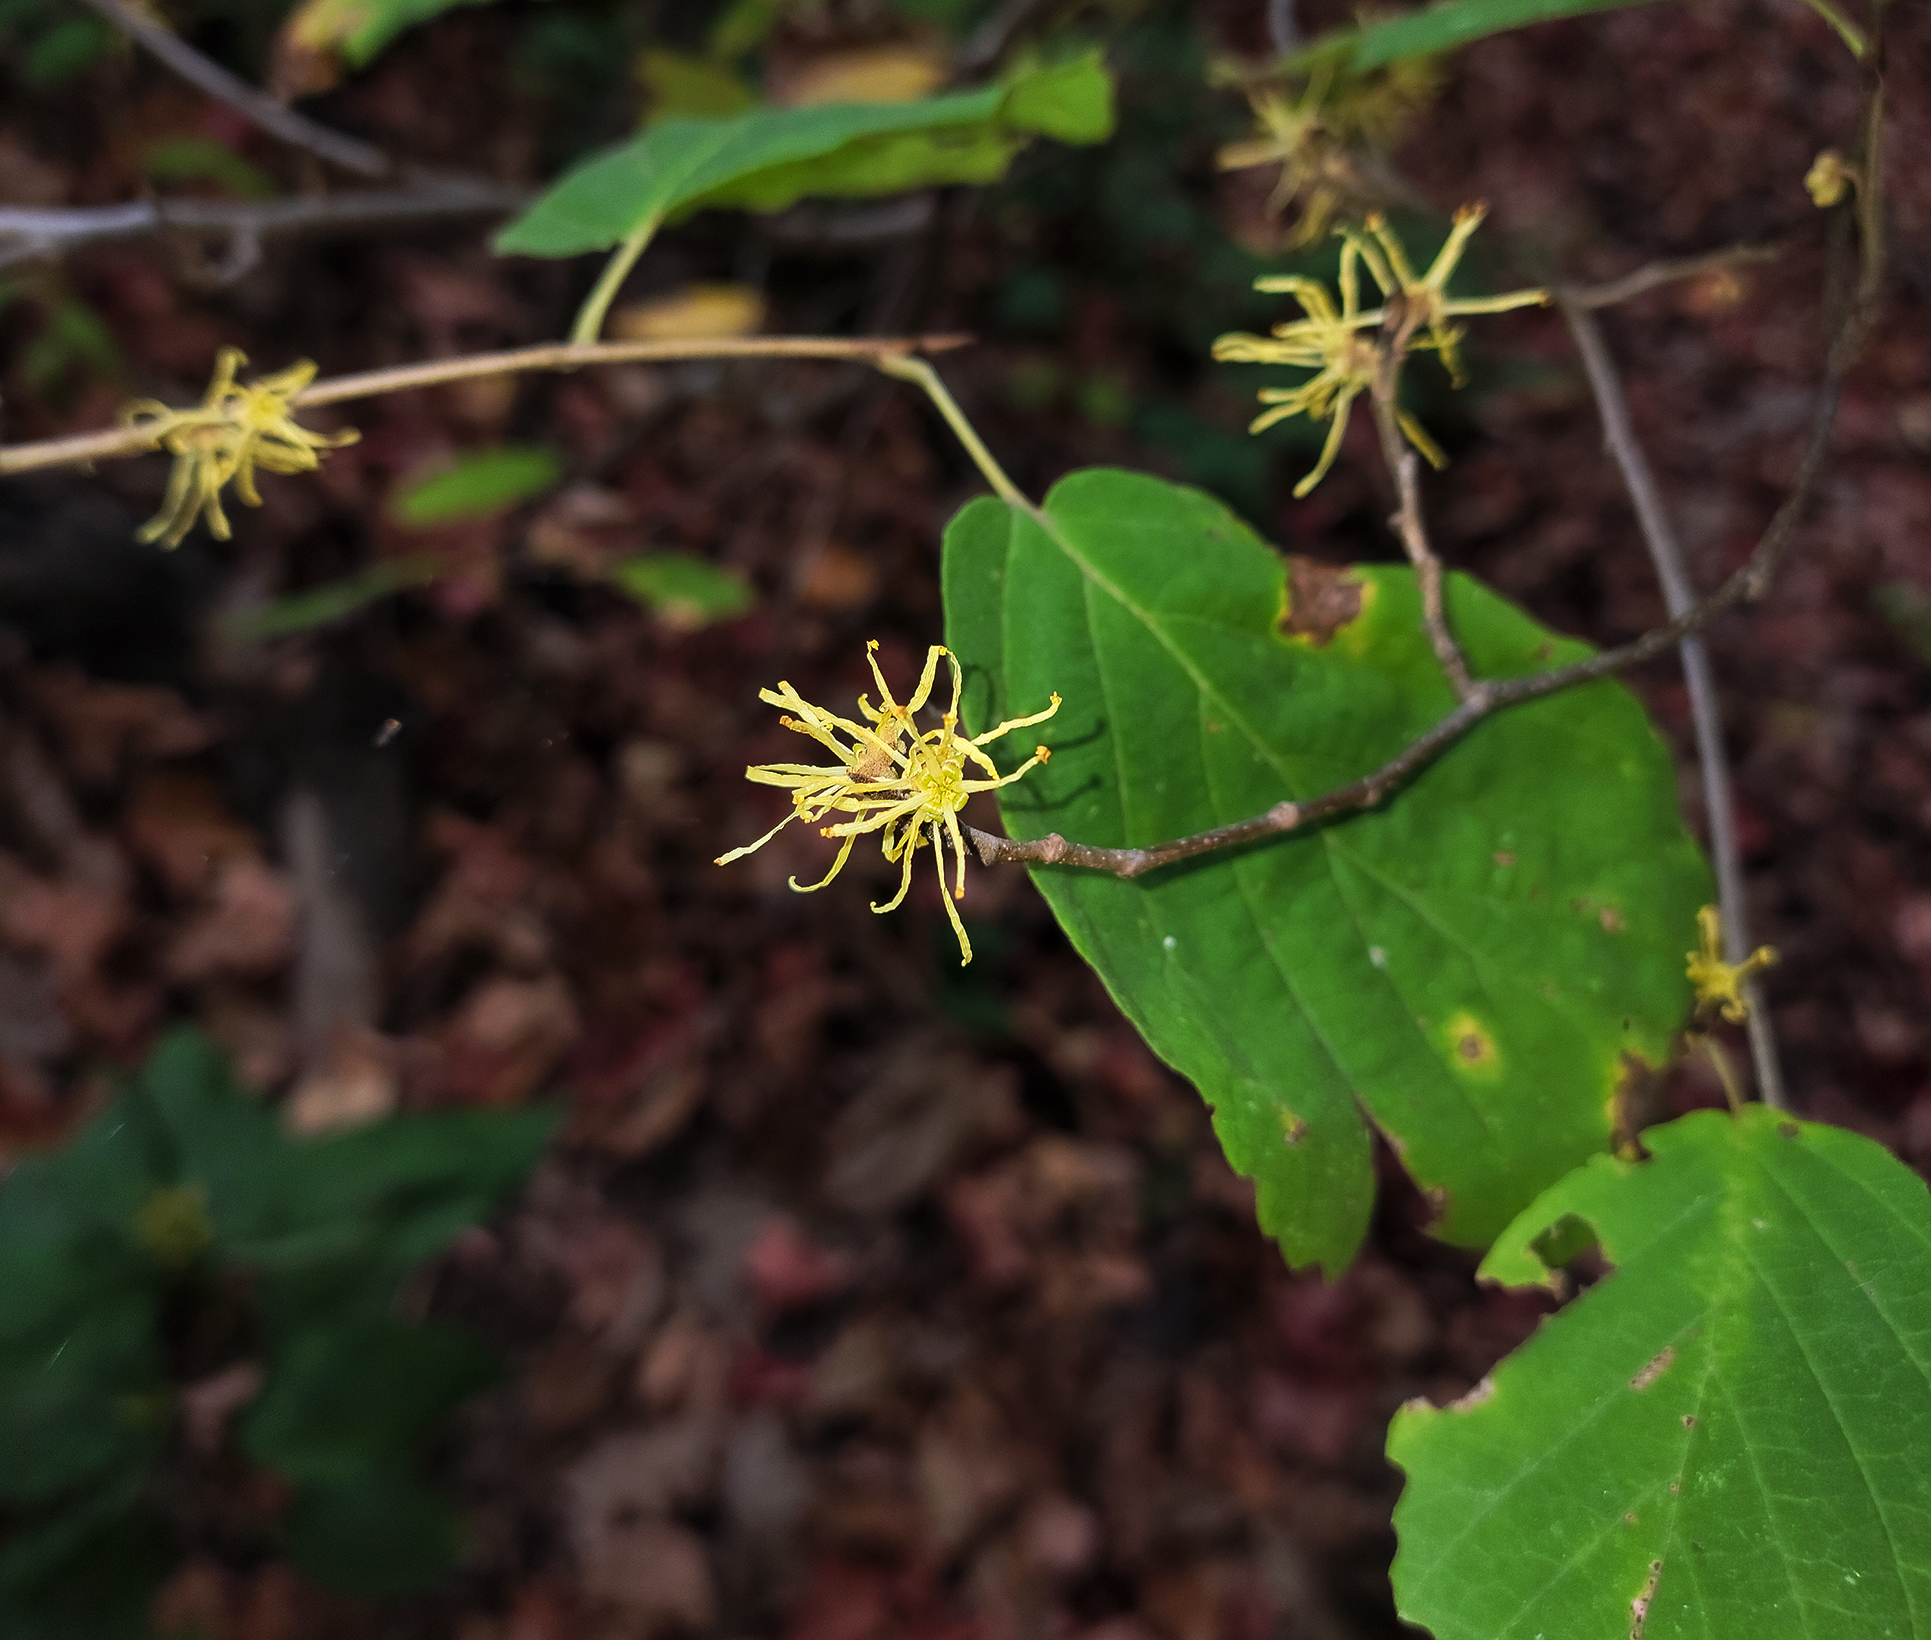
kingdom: Plantae
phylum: Tracheophyta
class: Magnoliopsida
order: Saxifragales
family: Hamamelidaceae
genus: Hamamelis
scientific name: Hamamelis virginiana
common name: Witch-hazel
